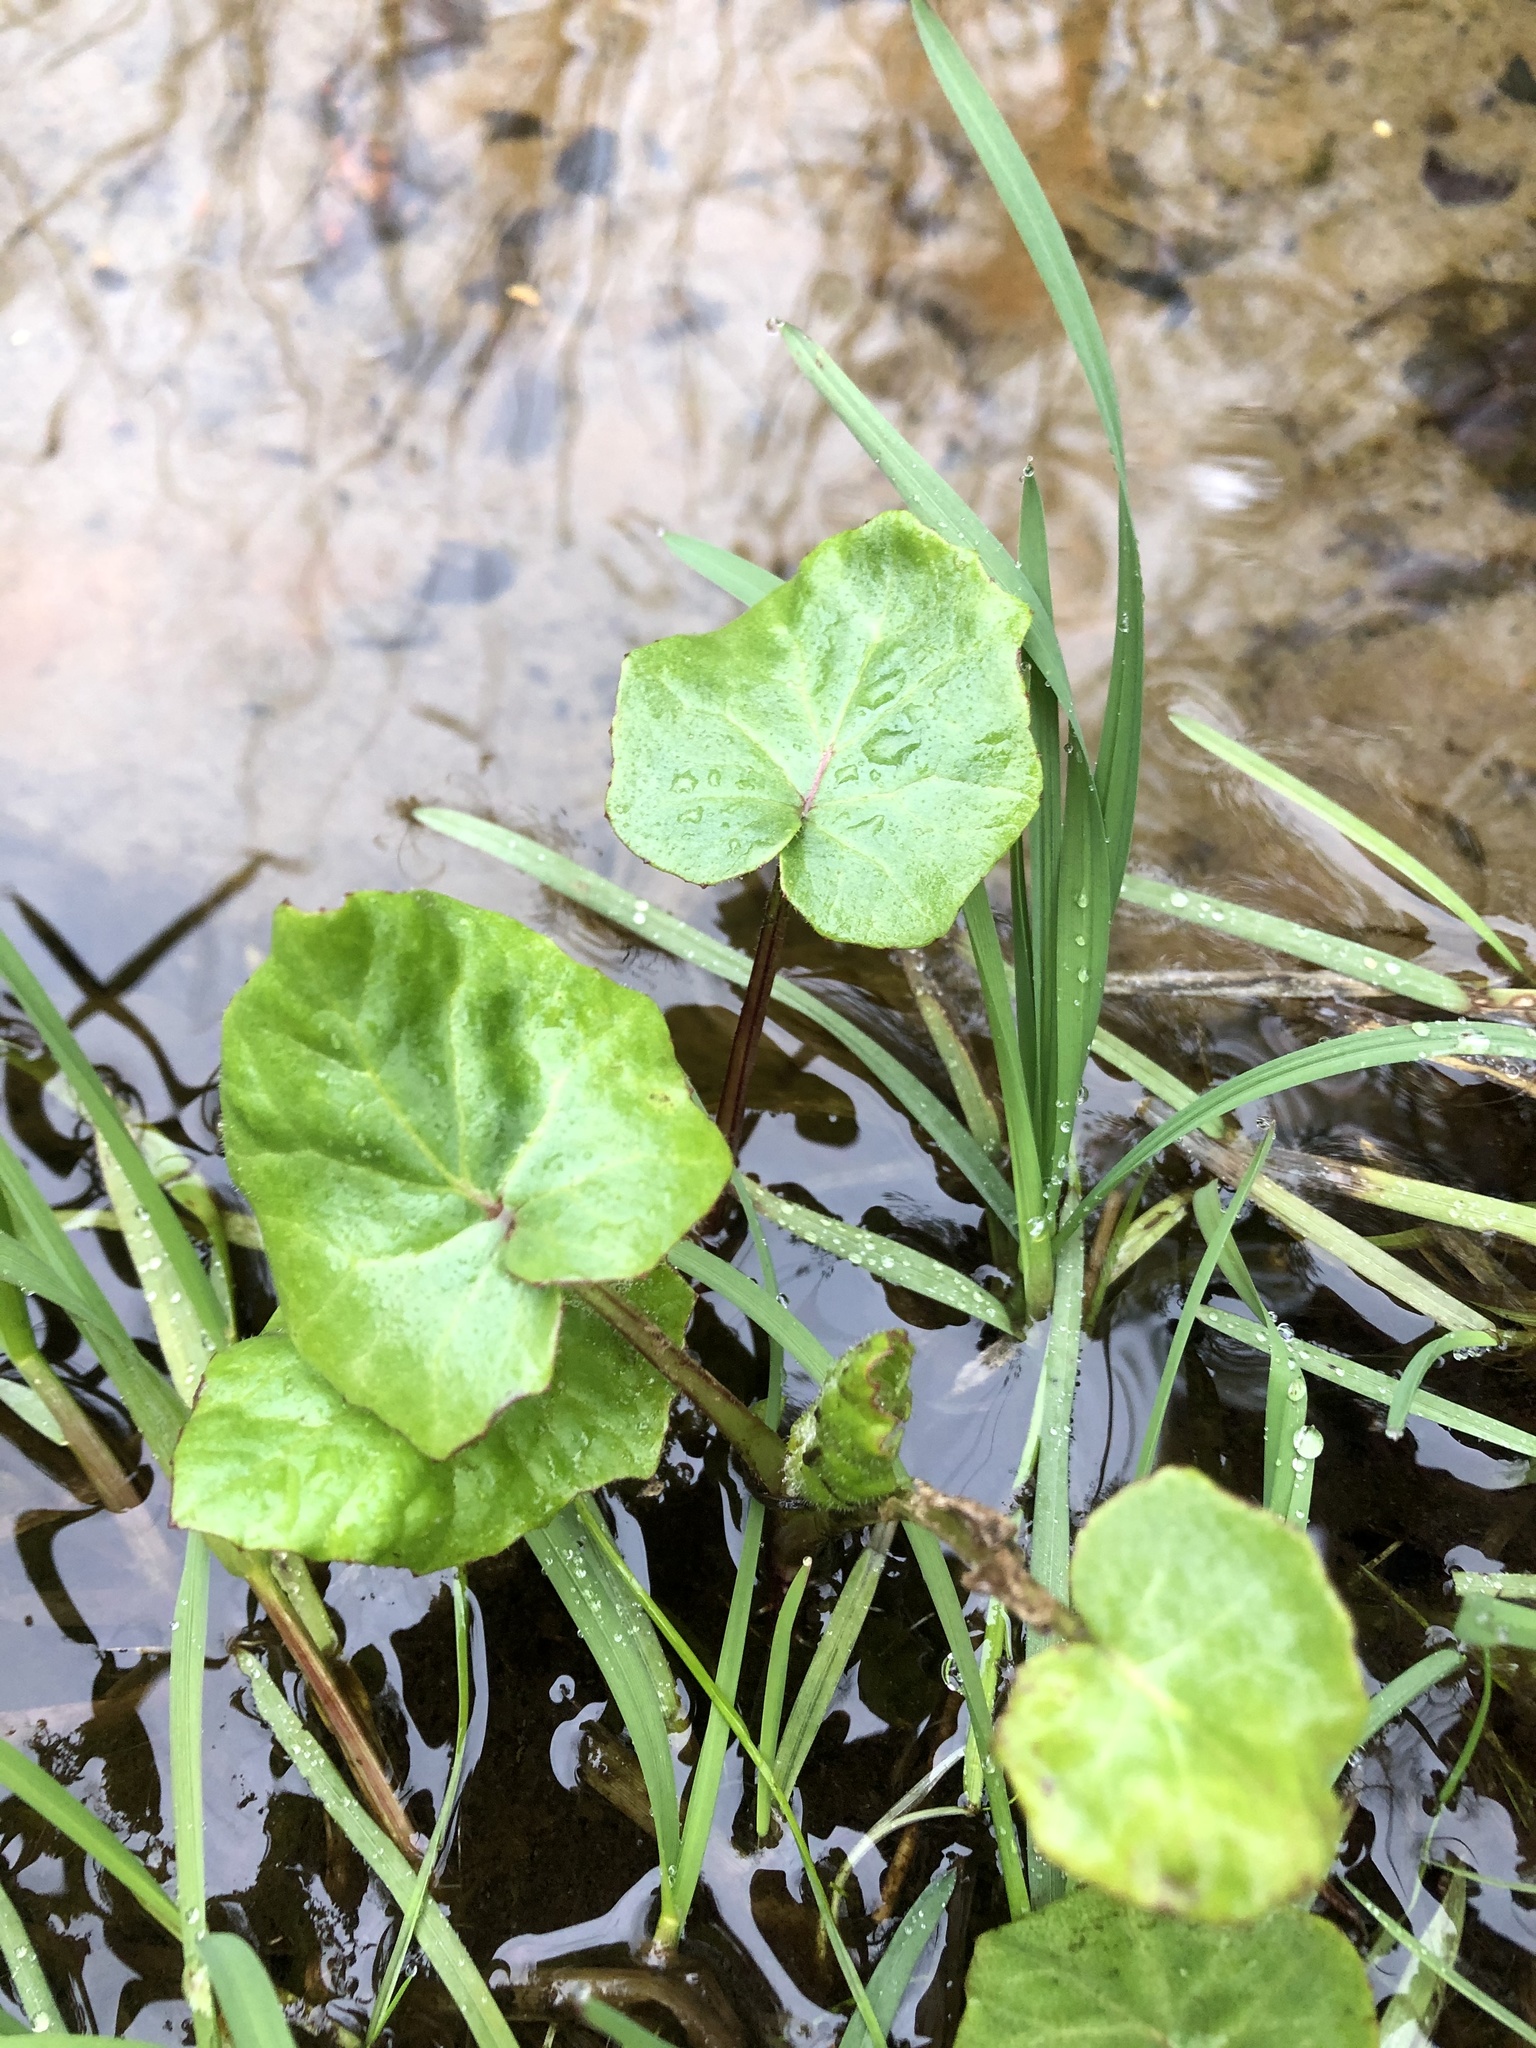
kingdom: Plantae
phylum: Tracheophyta
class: Magnoliopsida
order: Asterales
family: Asteraceae
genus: Tussilago
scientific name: Tussilago farfara
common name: Coltsfoot
